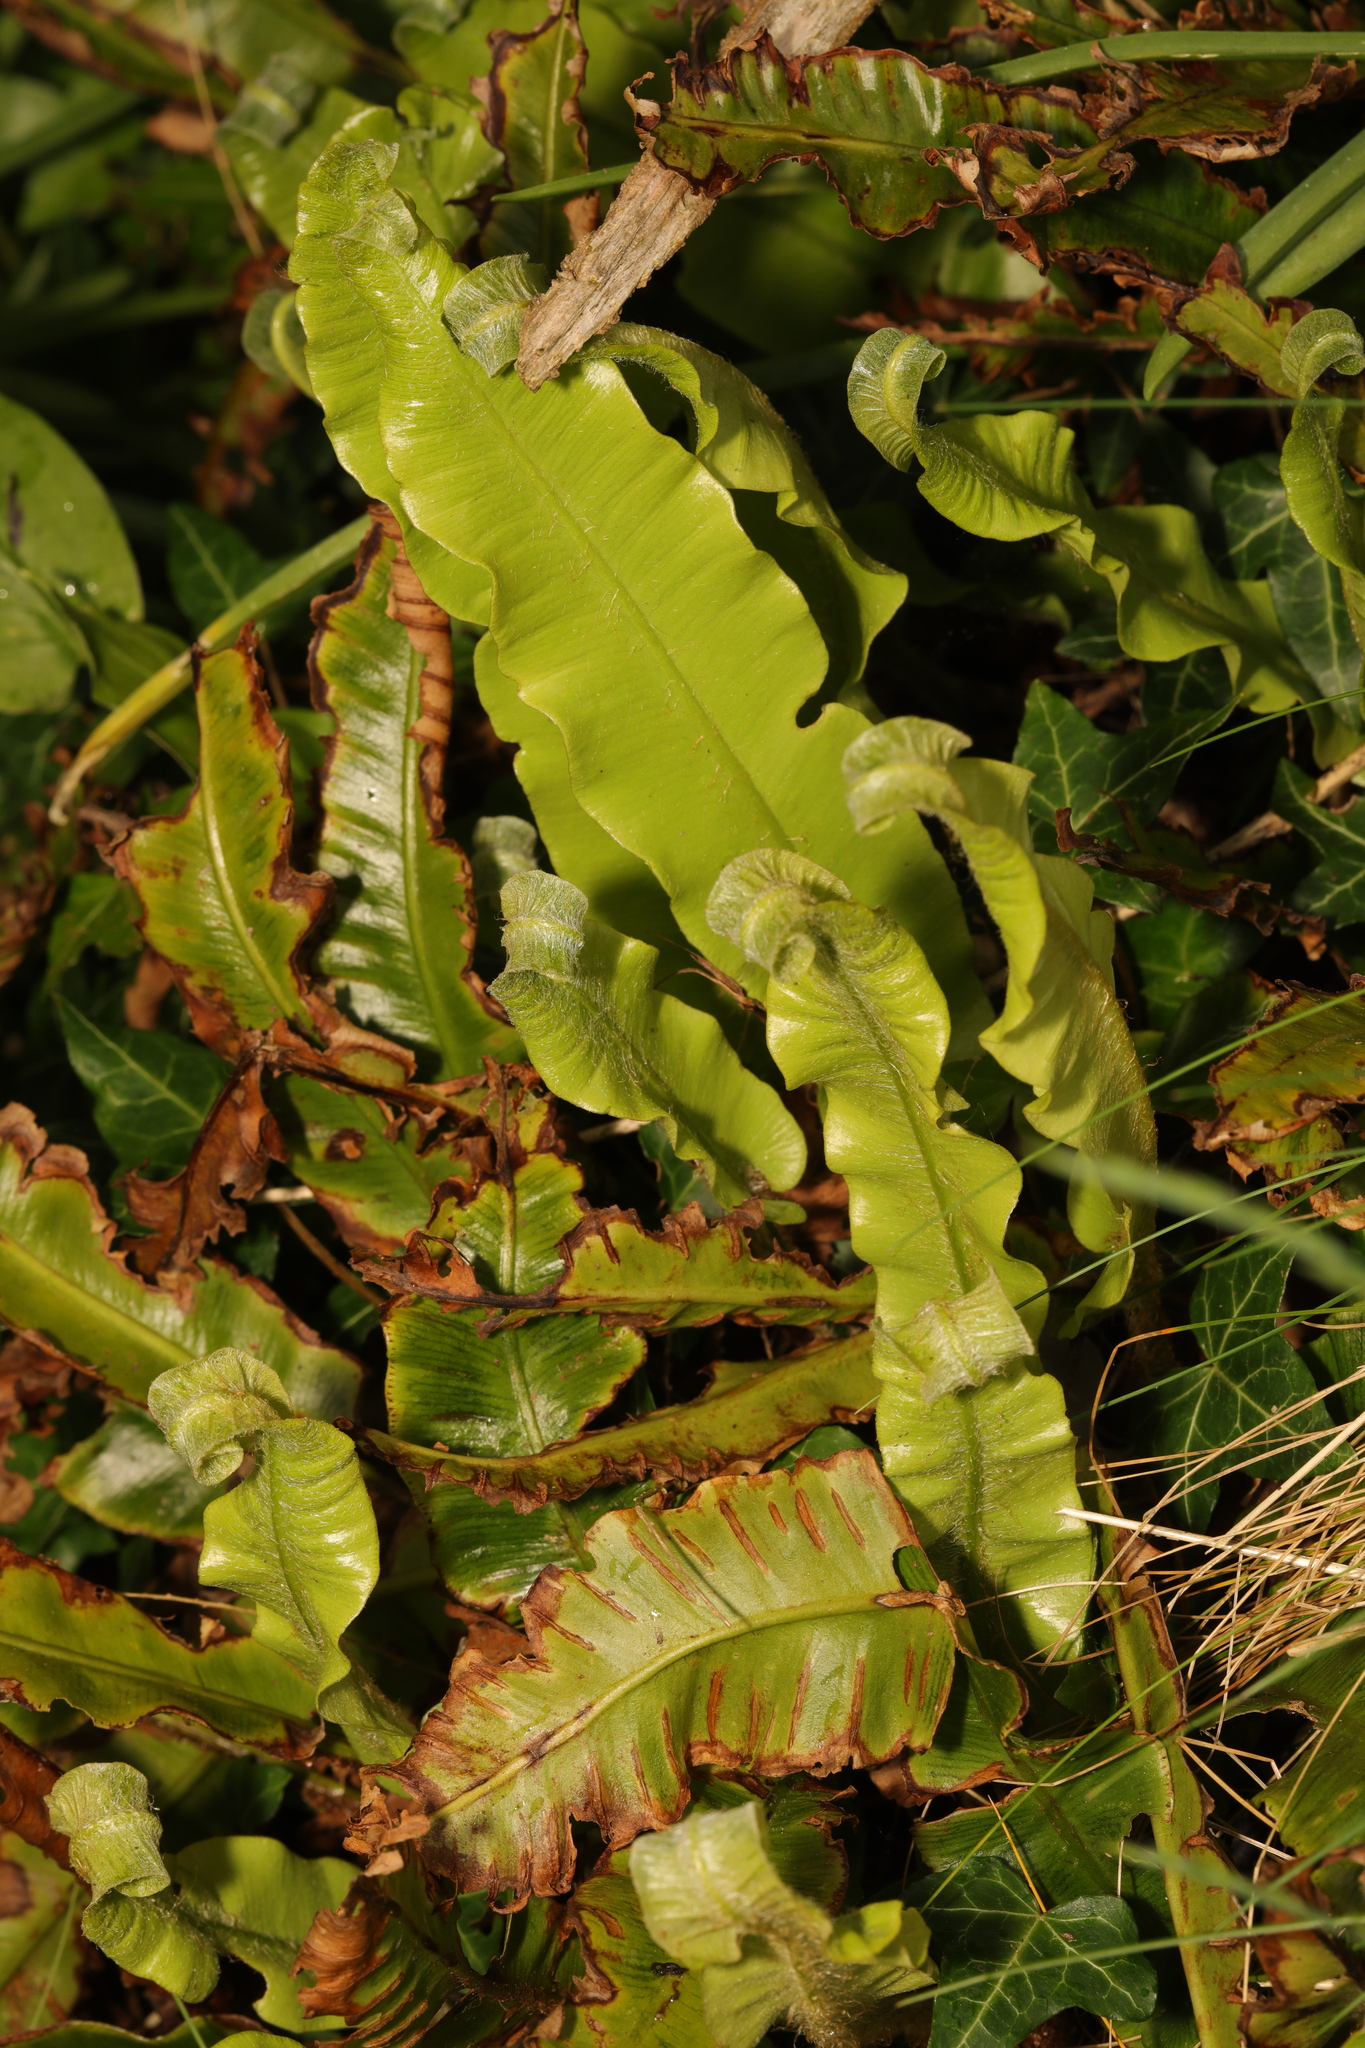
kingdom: Plantae
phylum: Tracheophyta
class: Polypodiopsida
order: Polypodiales
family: Aspleniaceae
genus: Asplenium
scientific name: Asplenium scolopendrium
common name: Hart's-tongue fern
